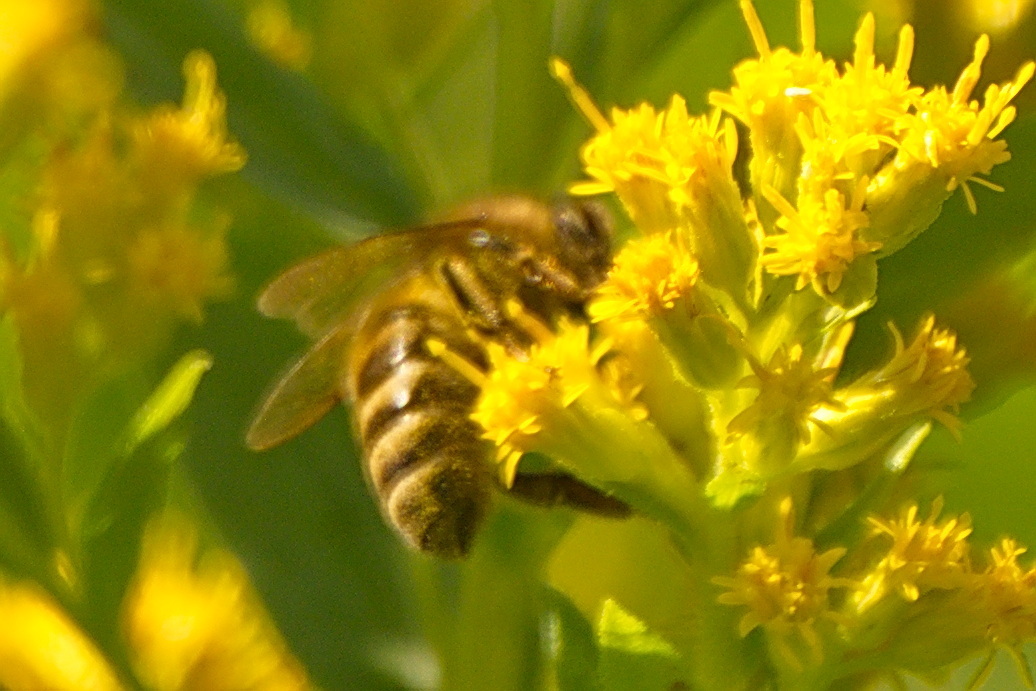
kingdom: Animalia
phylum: Arthropoda
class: Insecta
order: Hymenoptera
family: Apidae
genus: Apis
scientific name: Apis mellifera
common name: Honey bee
